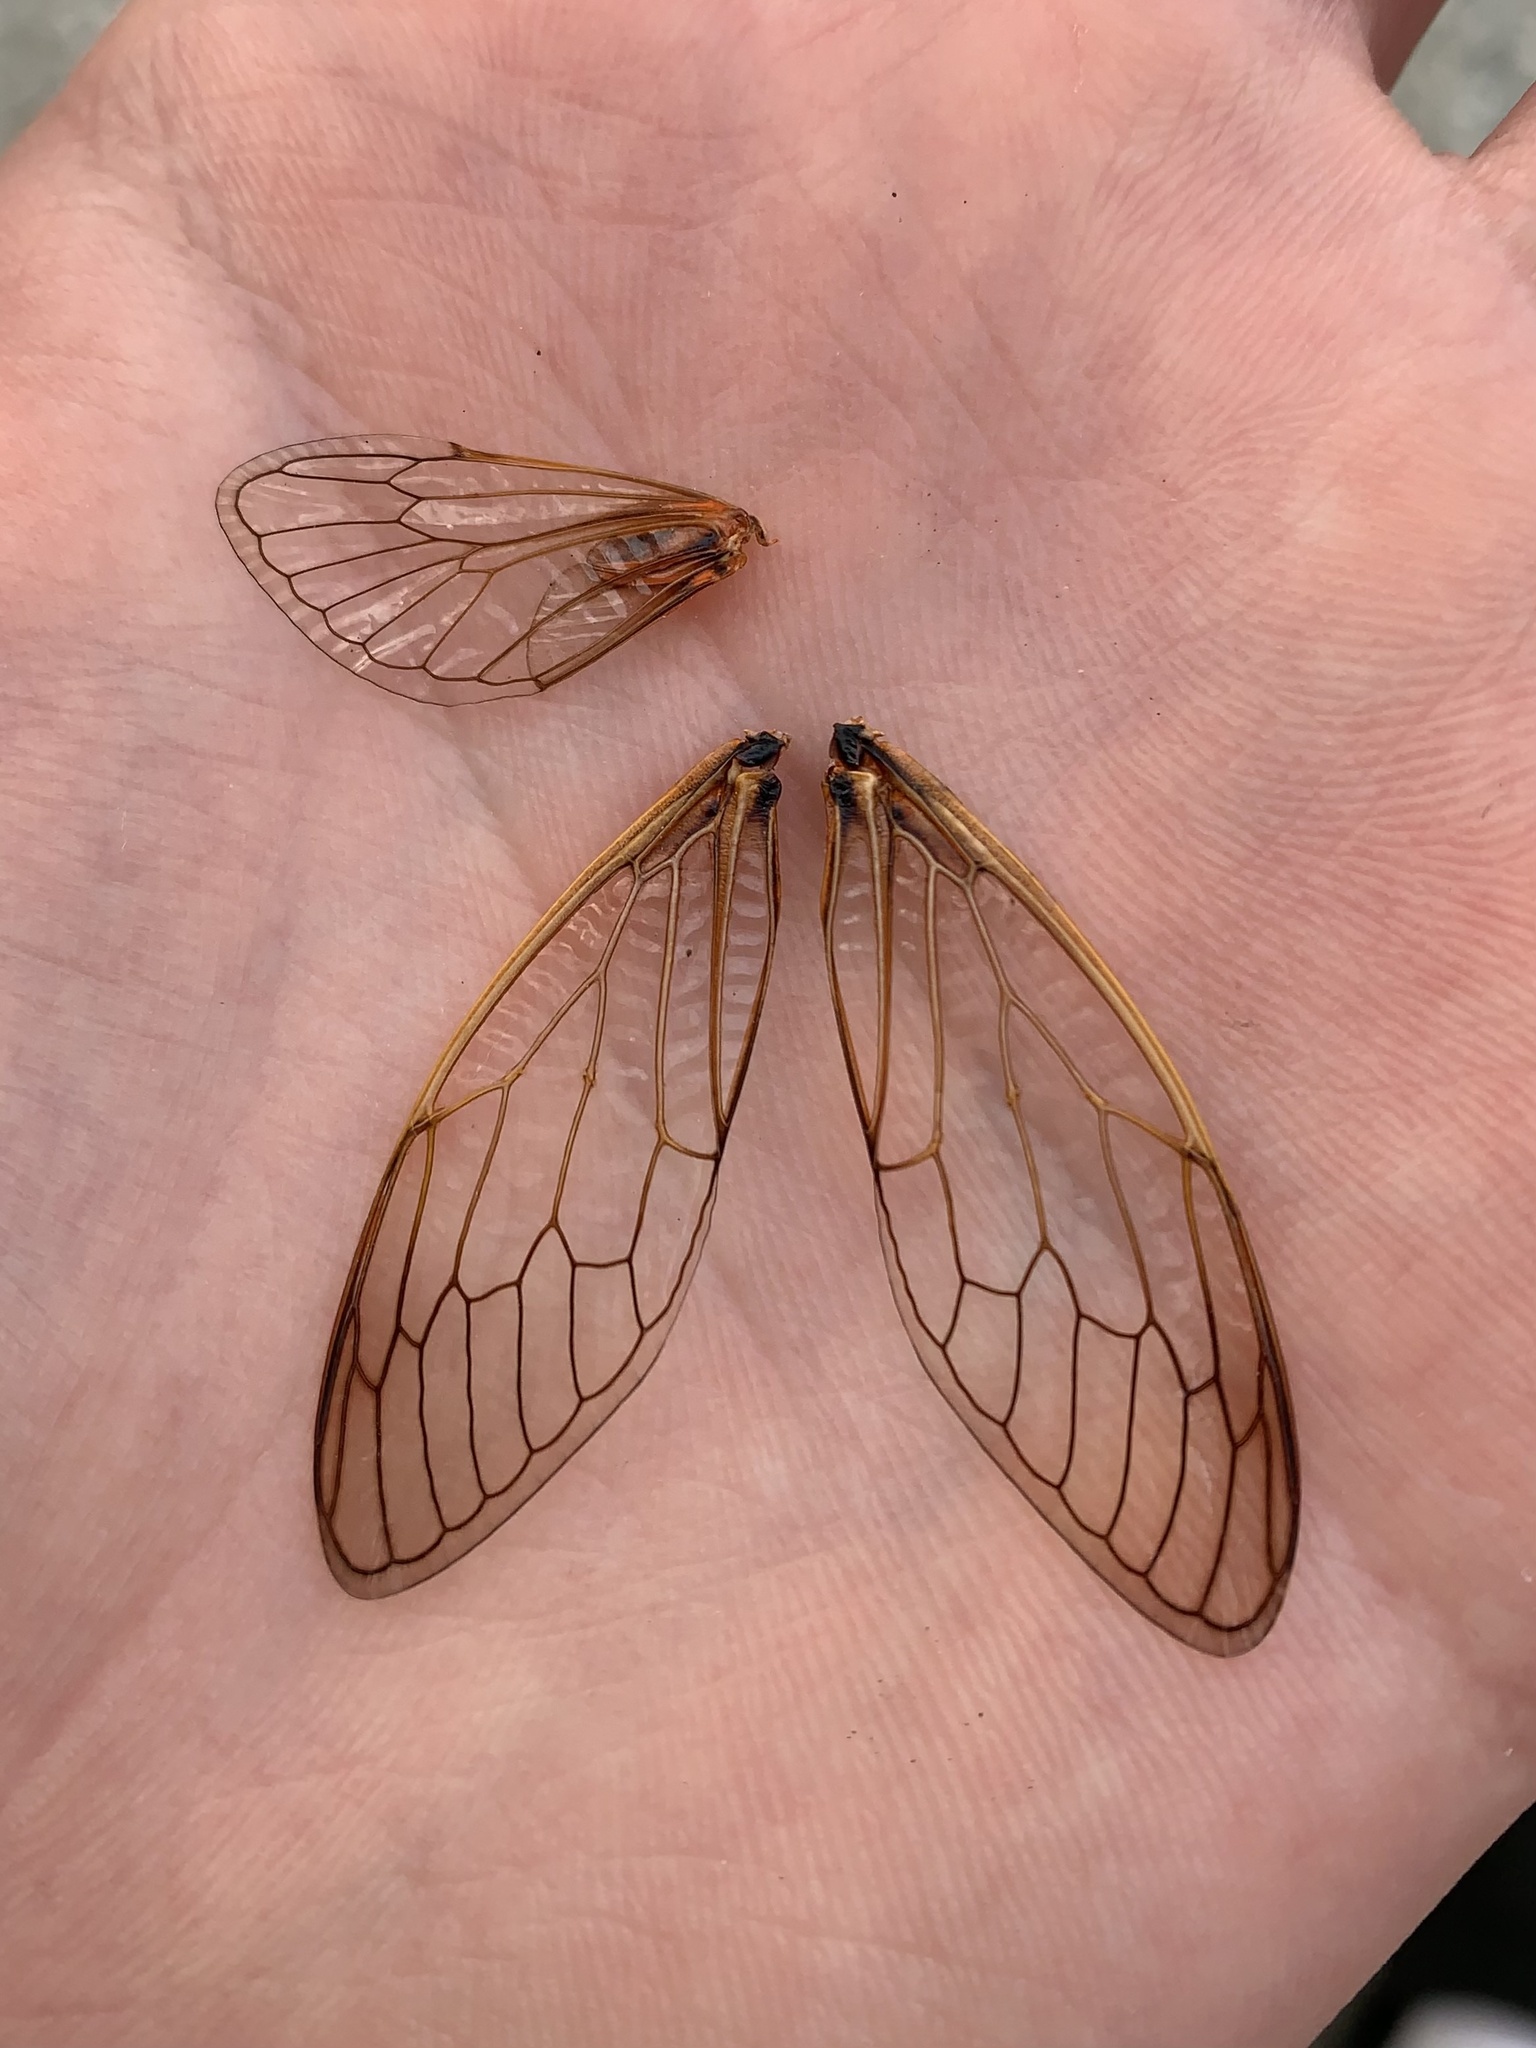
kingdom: Animalia
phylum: Arthropoda
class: Insecta
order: Hemiptera
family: Cicadidae
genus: Tibicina
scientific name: Tibicina steveni
